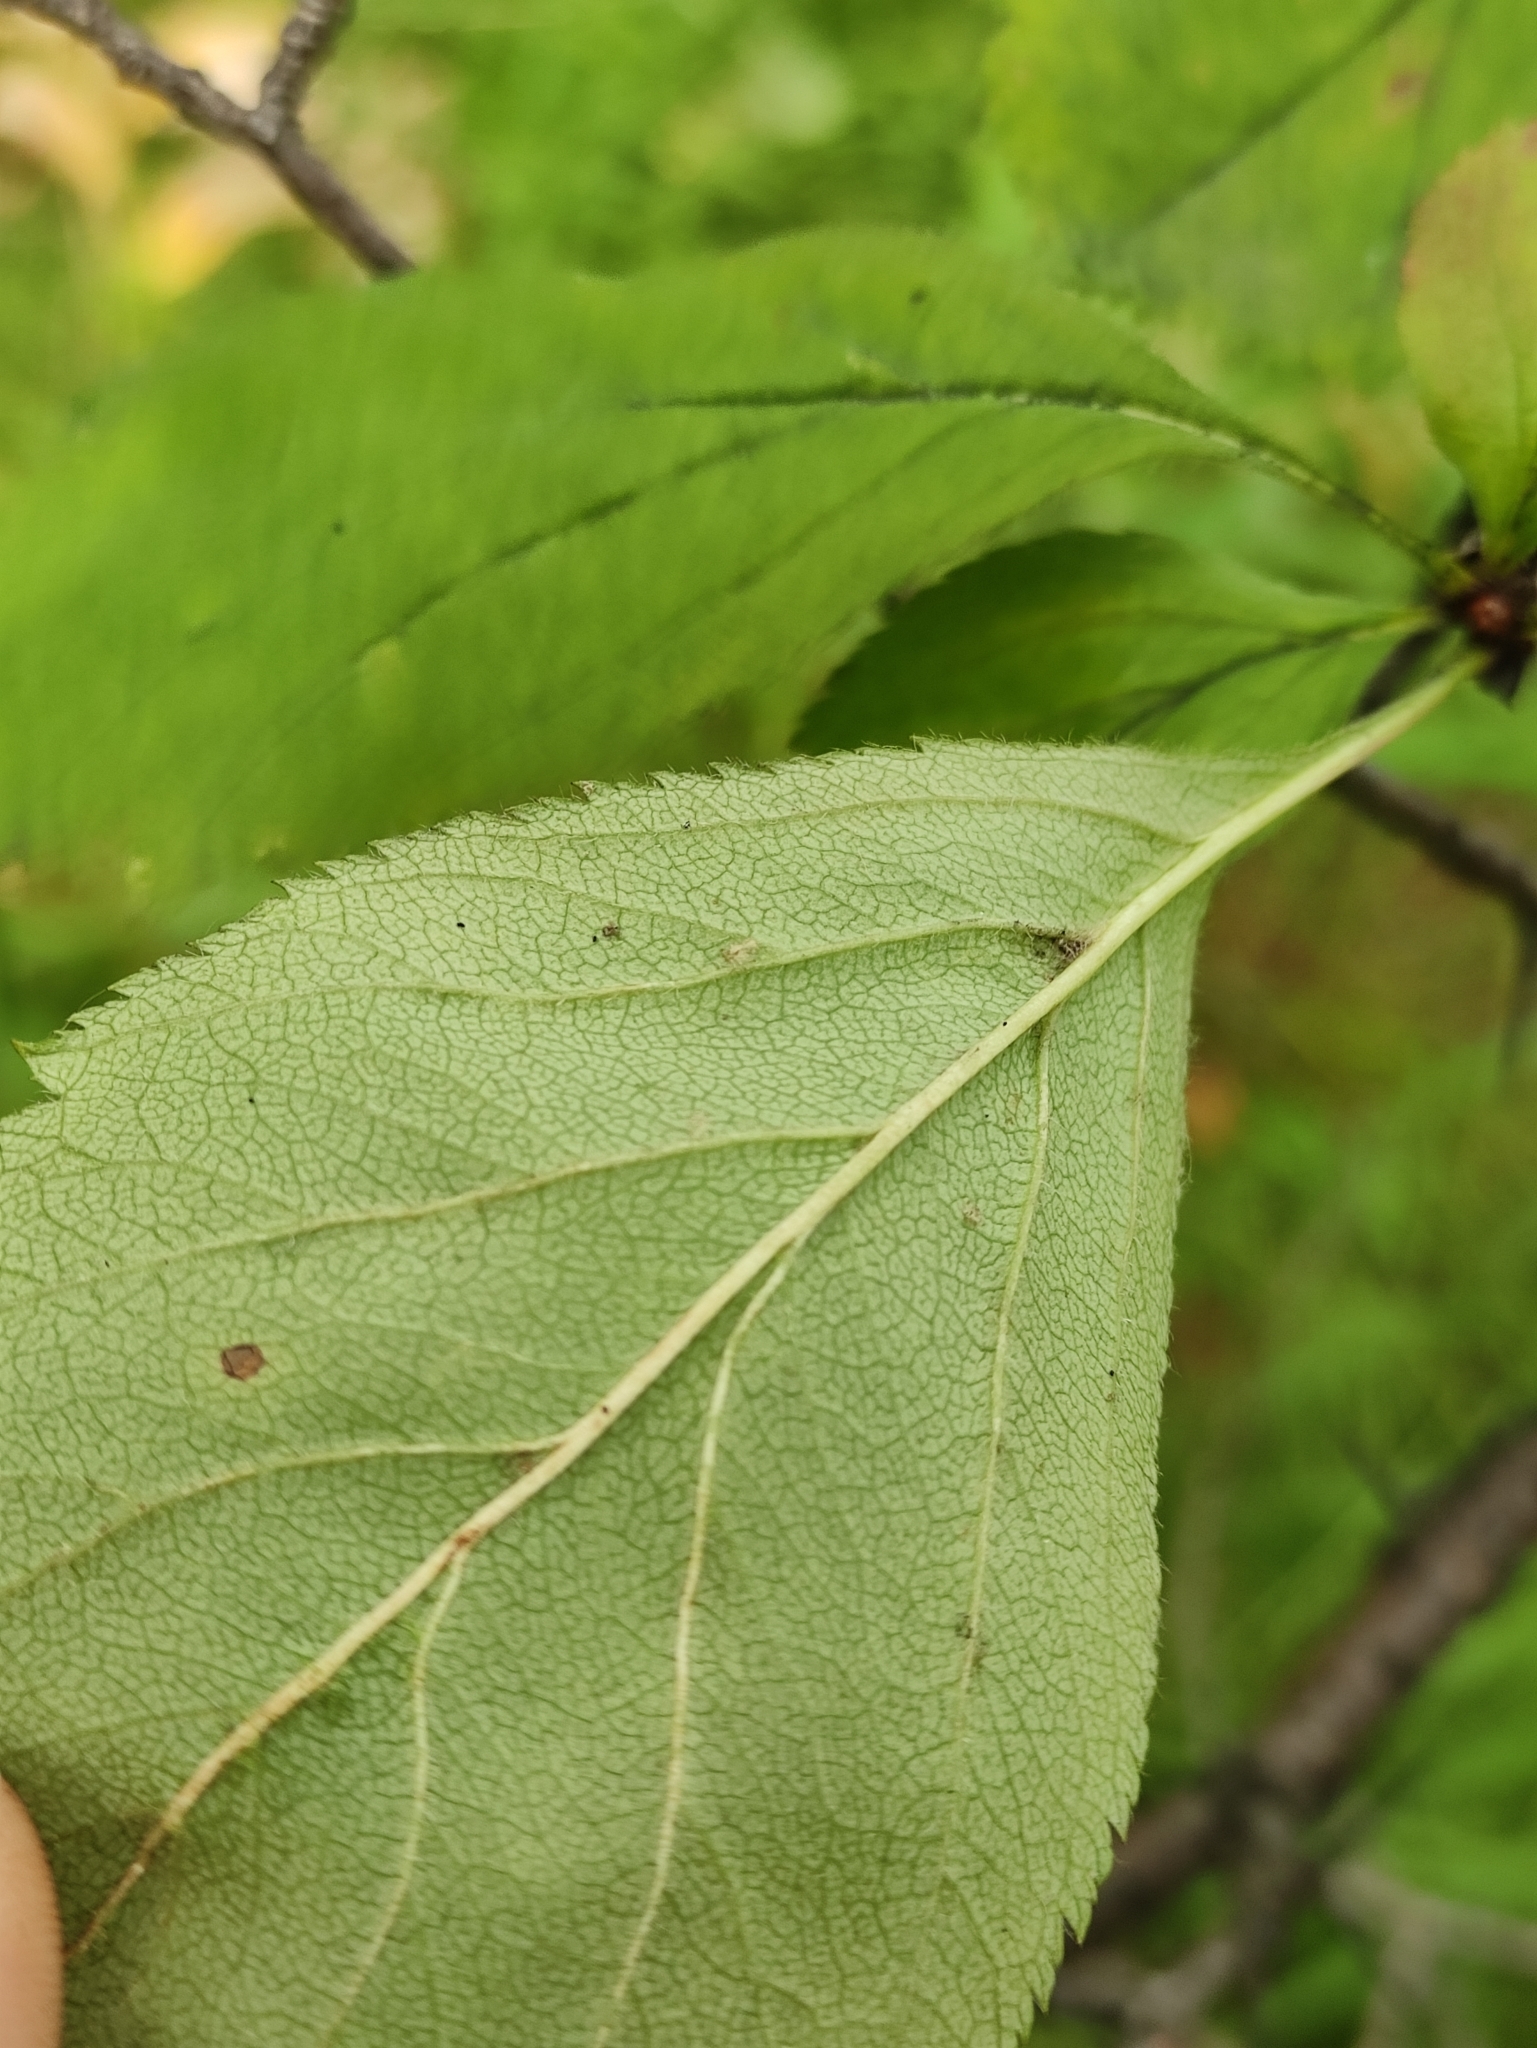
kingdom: Plantae
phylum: Tracheophyta
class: Magnoliopsida
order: Rosales
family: Rosaceae
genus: Crataegus
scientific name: Crataegus sanguinea
